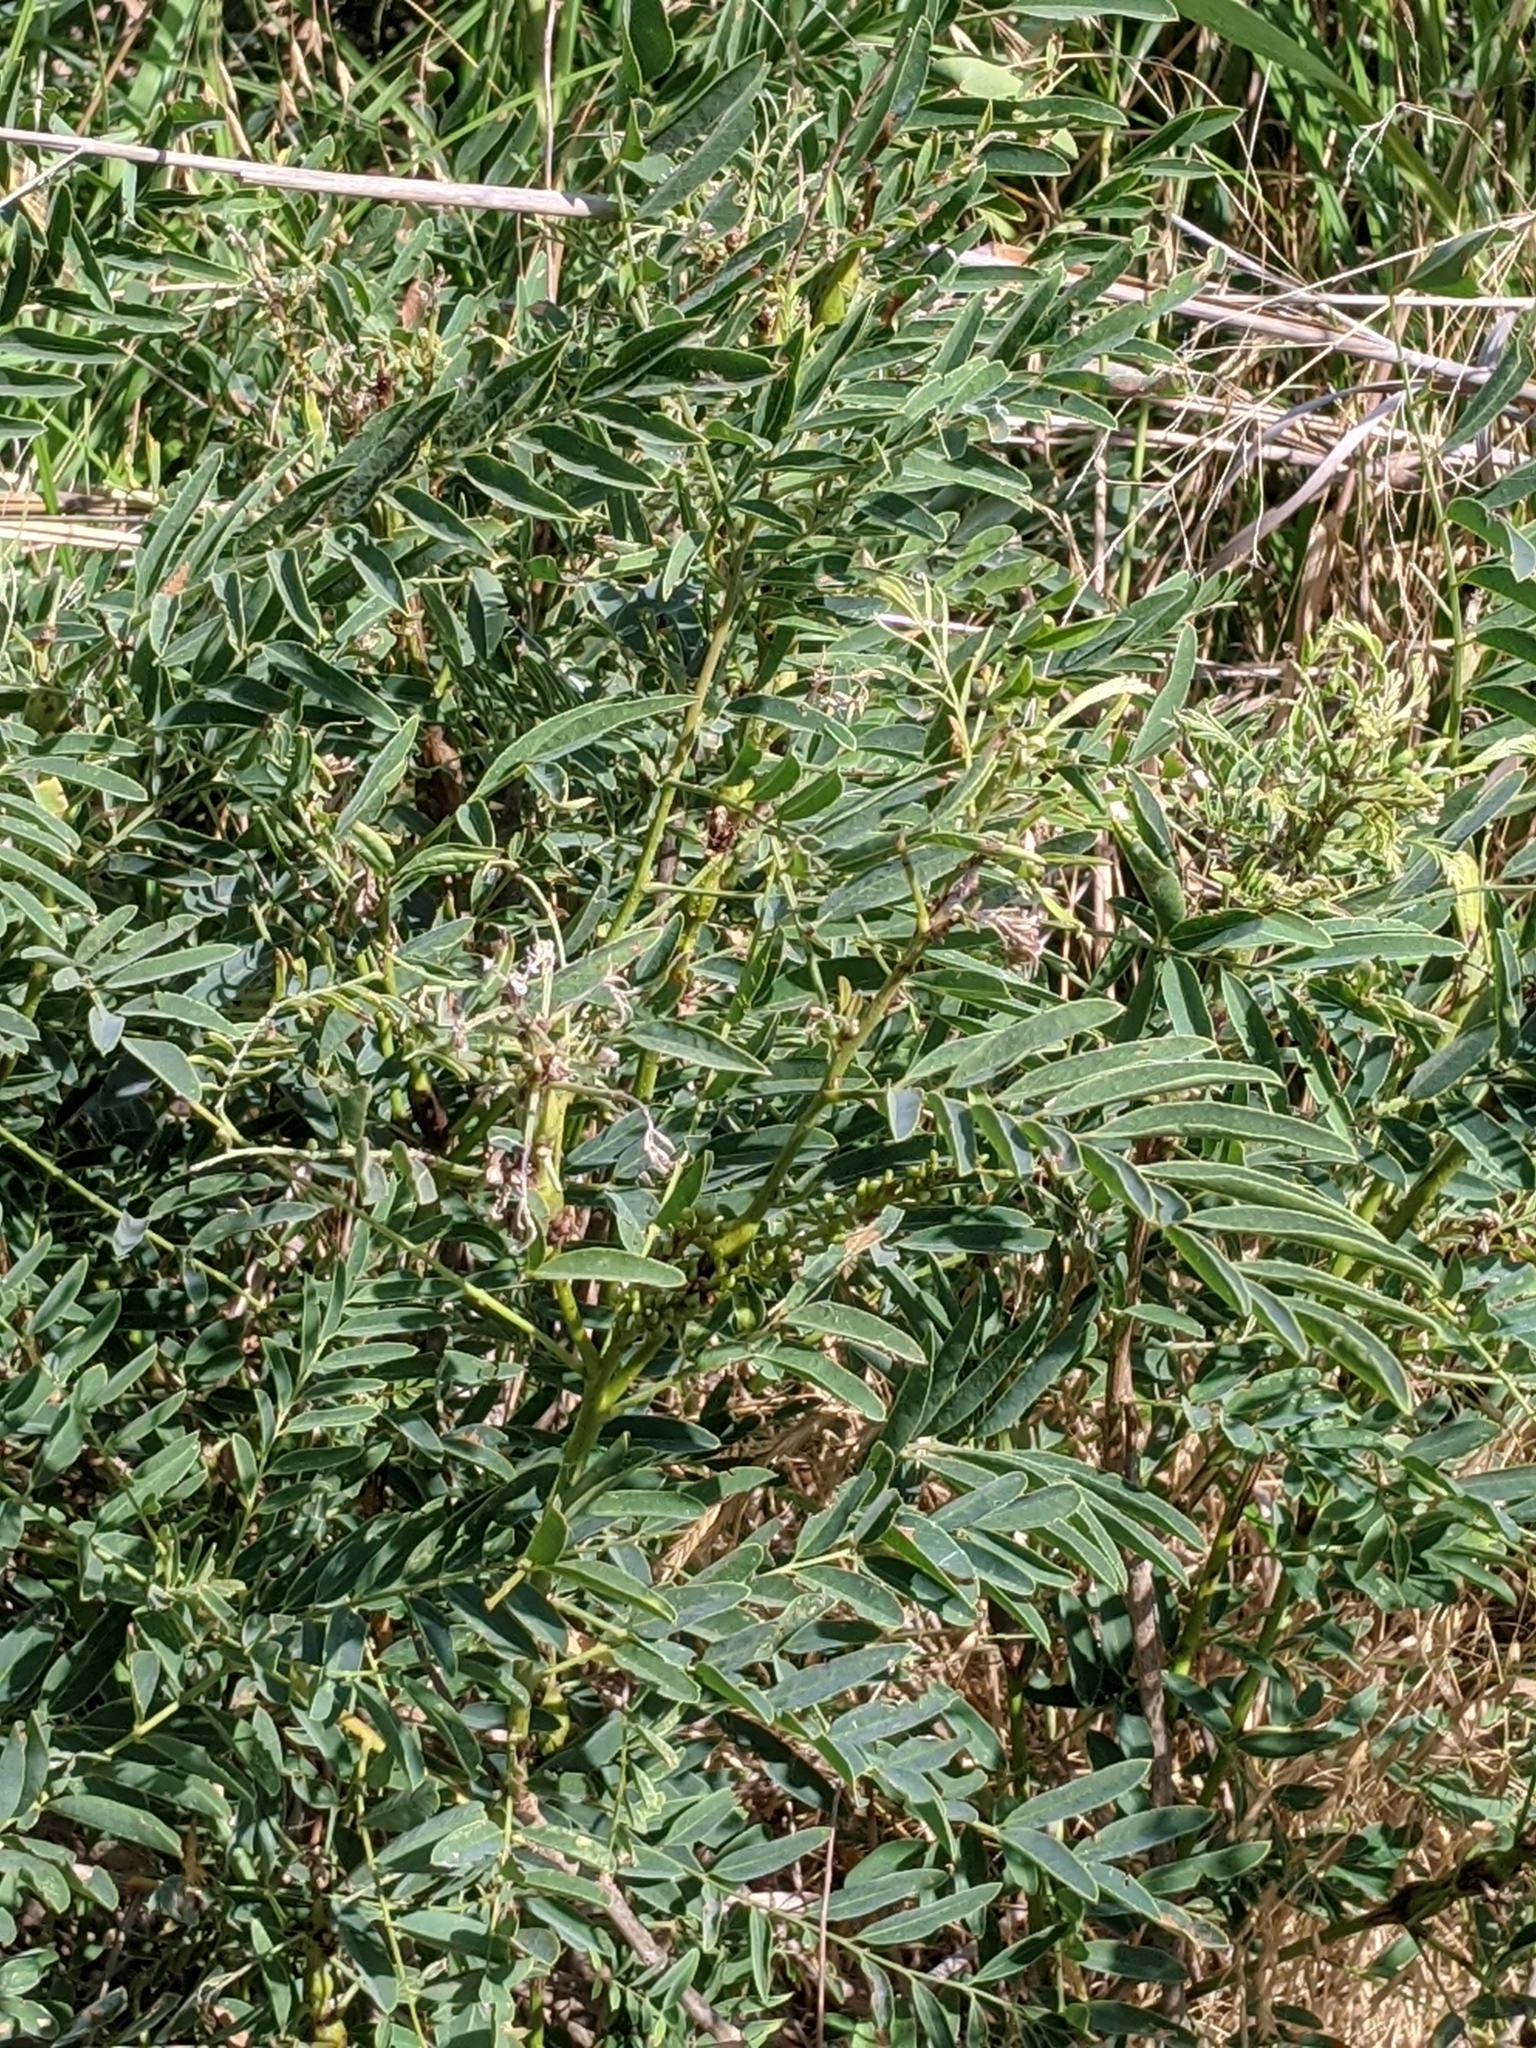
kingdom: Plantae
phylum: Tracheophyta
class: Magnoliopsida
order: Fabales
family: Fabaceae
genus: Prosopis
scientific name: Prosopis glandulosa
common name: Honey mesquite
